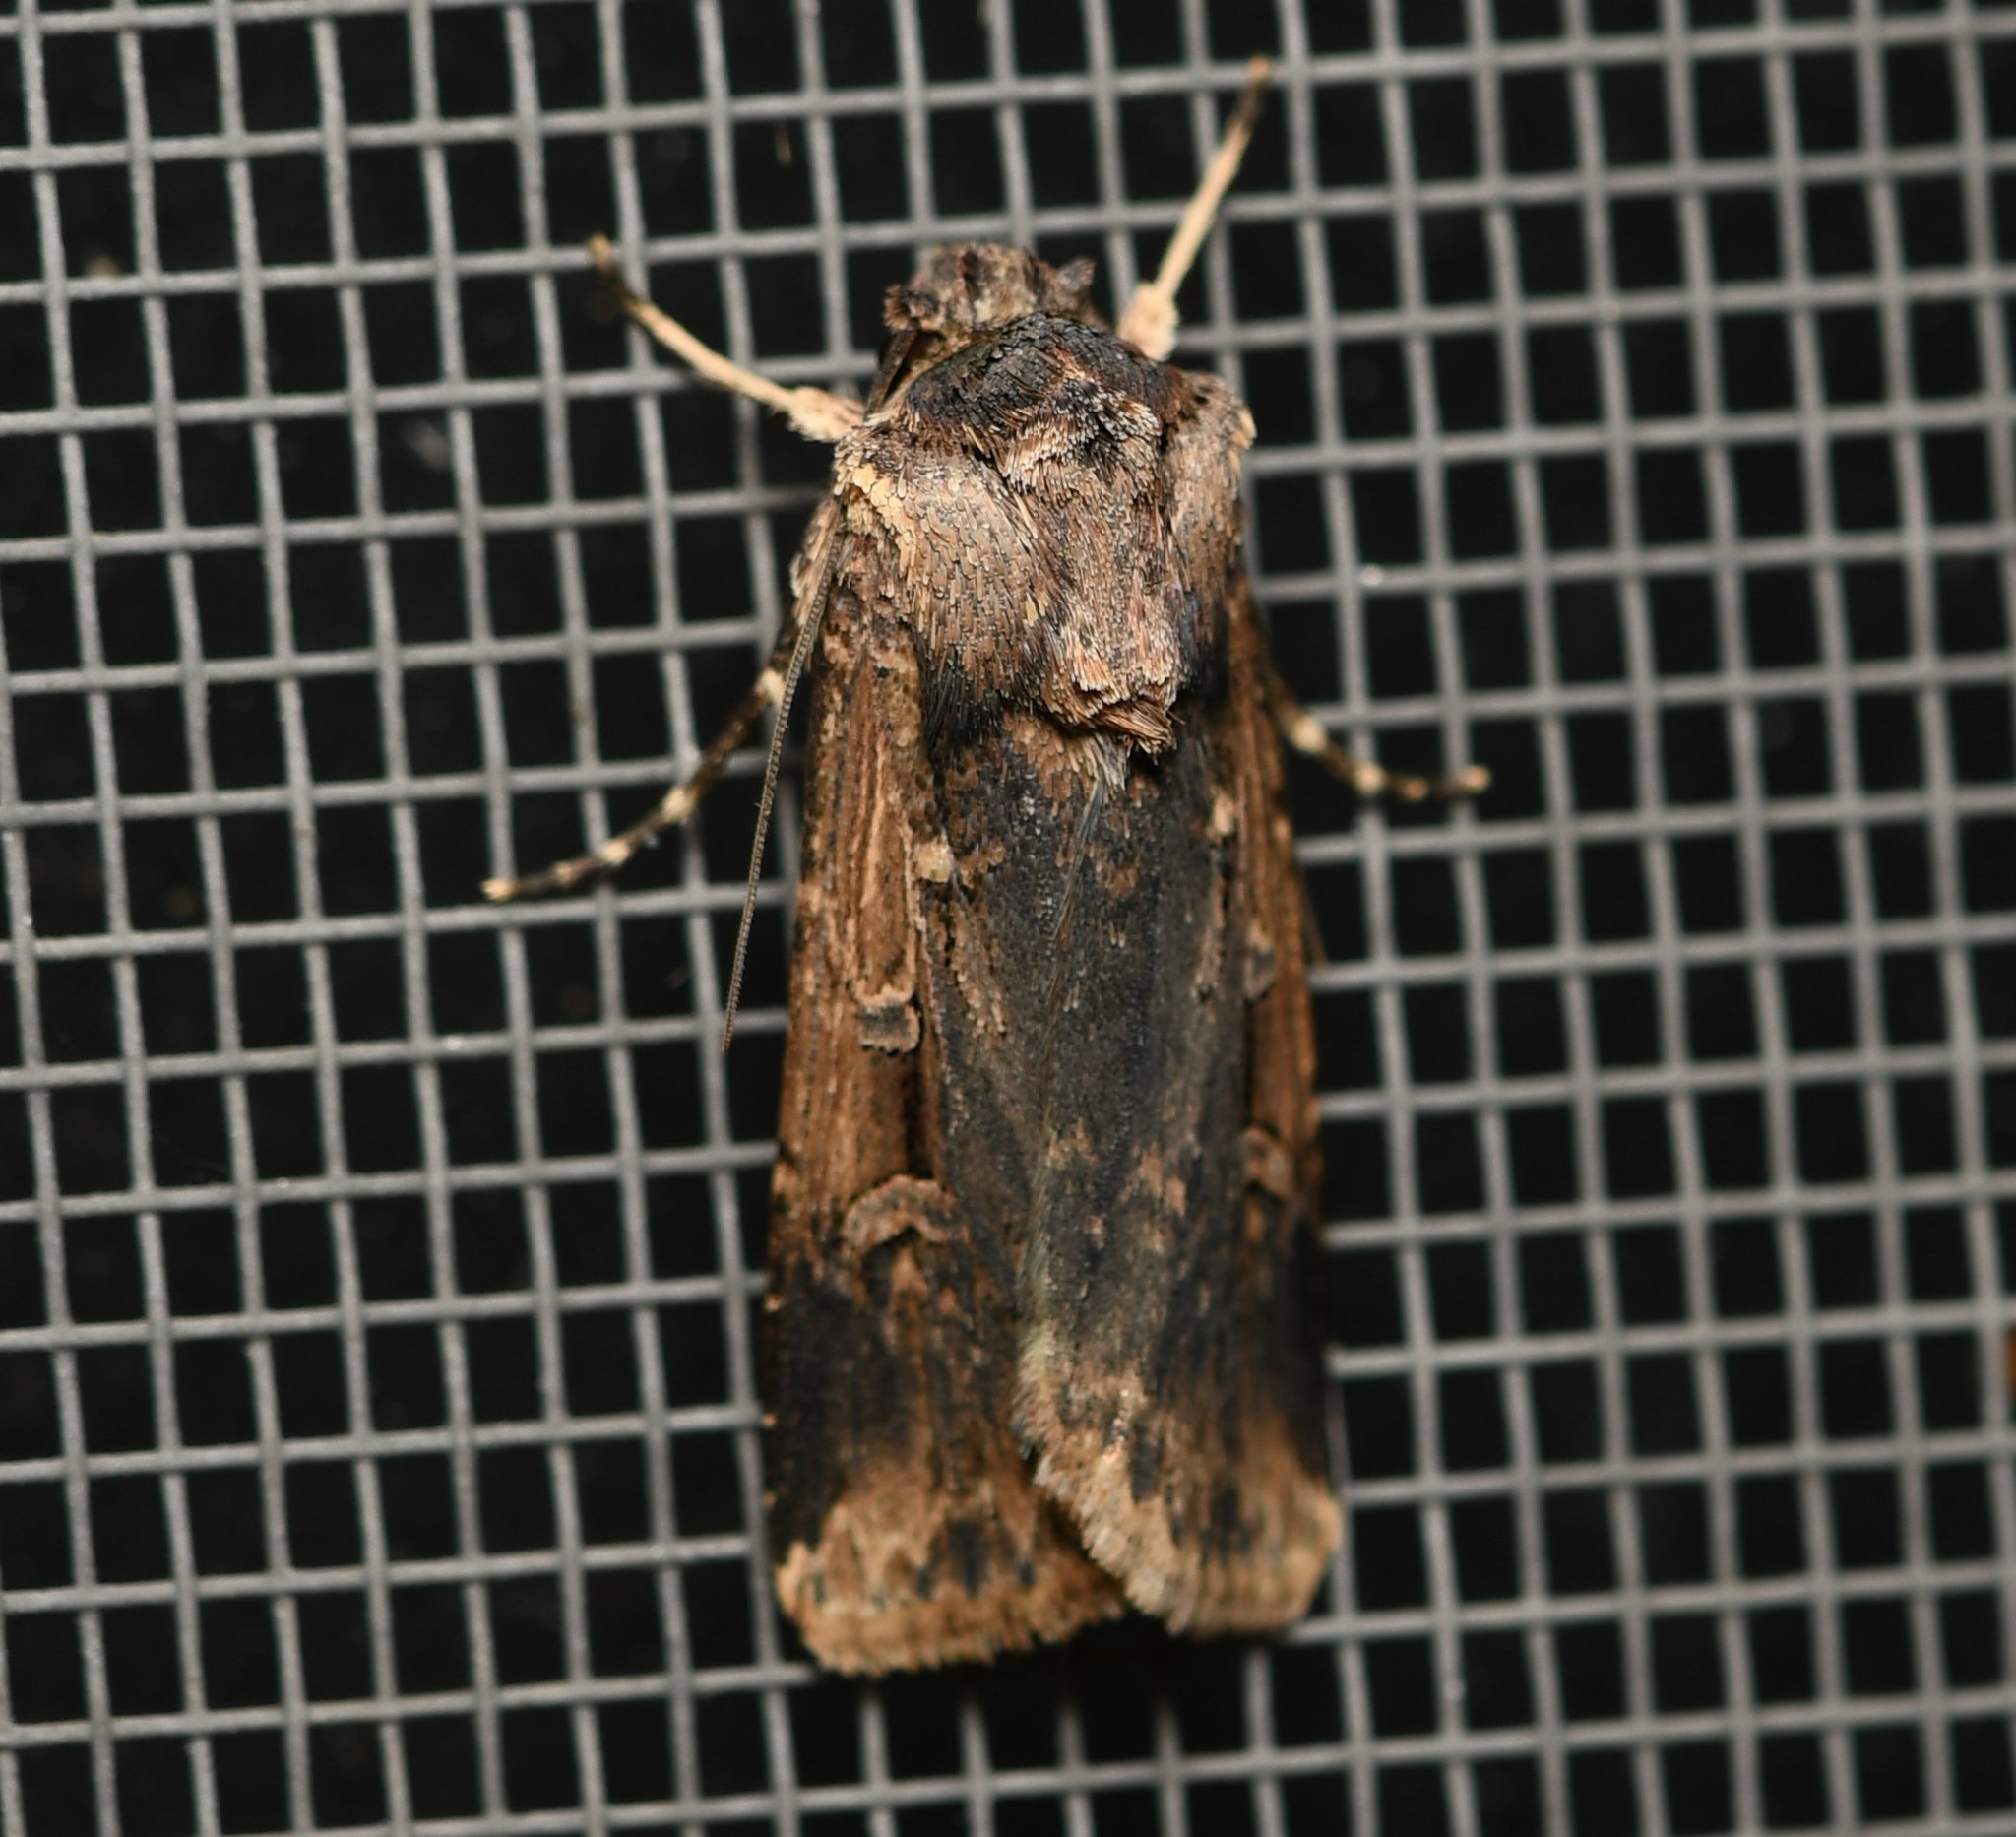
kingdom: Animalia
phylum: Arthropoda
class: Insecta
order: Lepidoptera
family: Noctuidae
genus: Feltia
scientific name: Feltia subterranea
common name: Granulate cutworm
